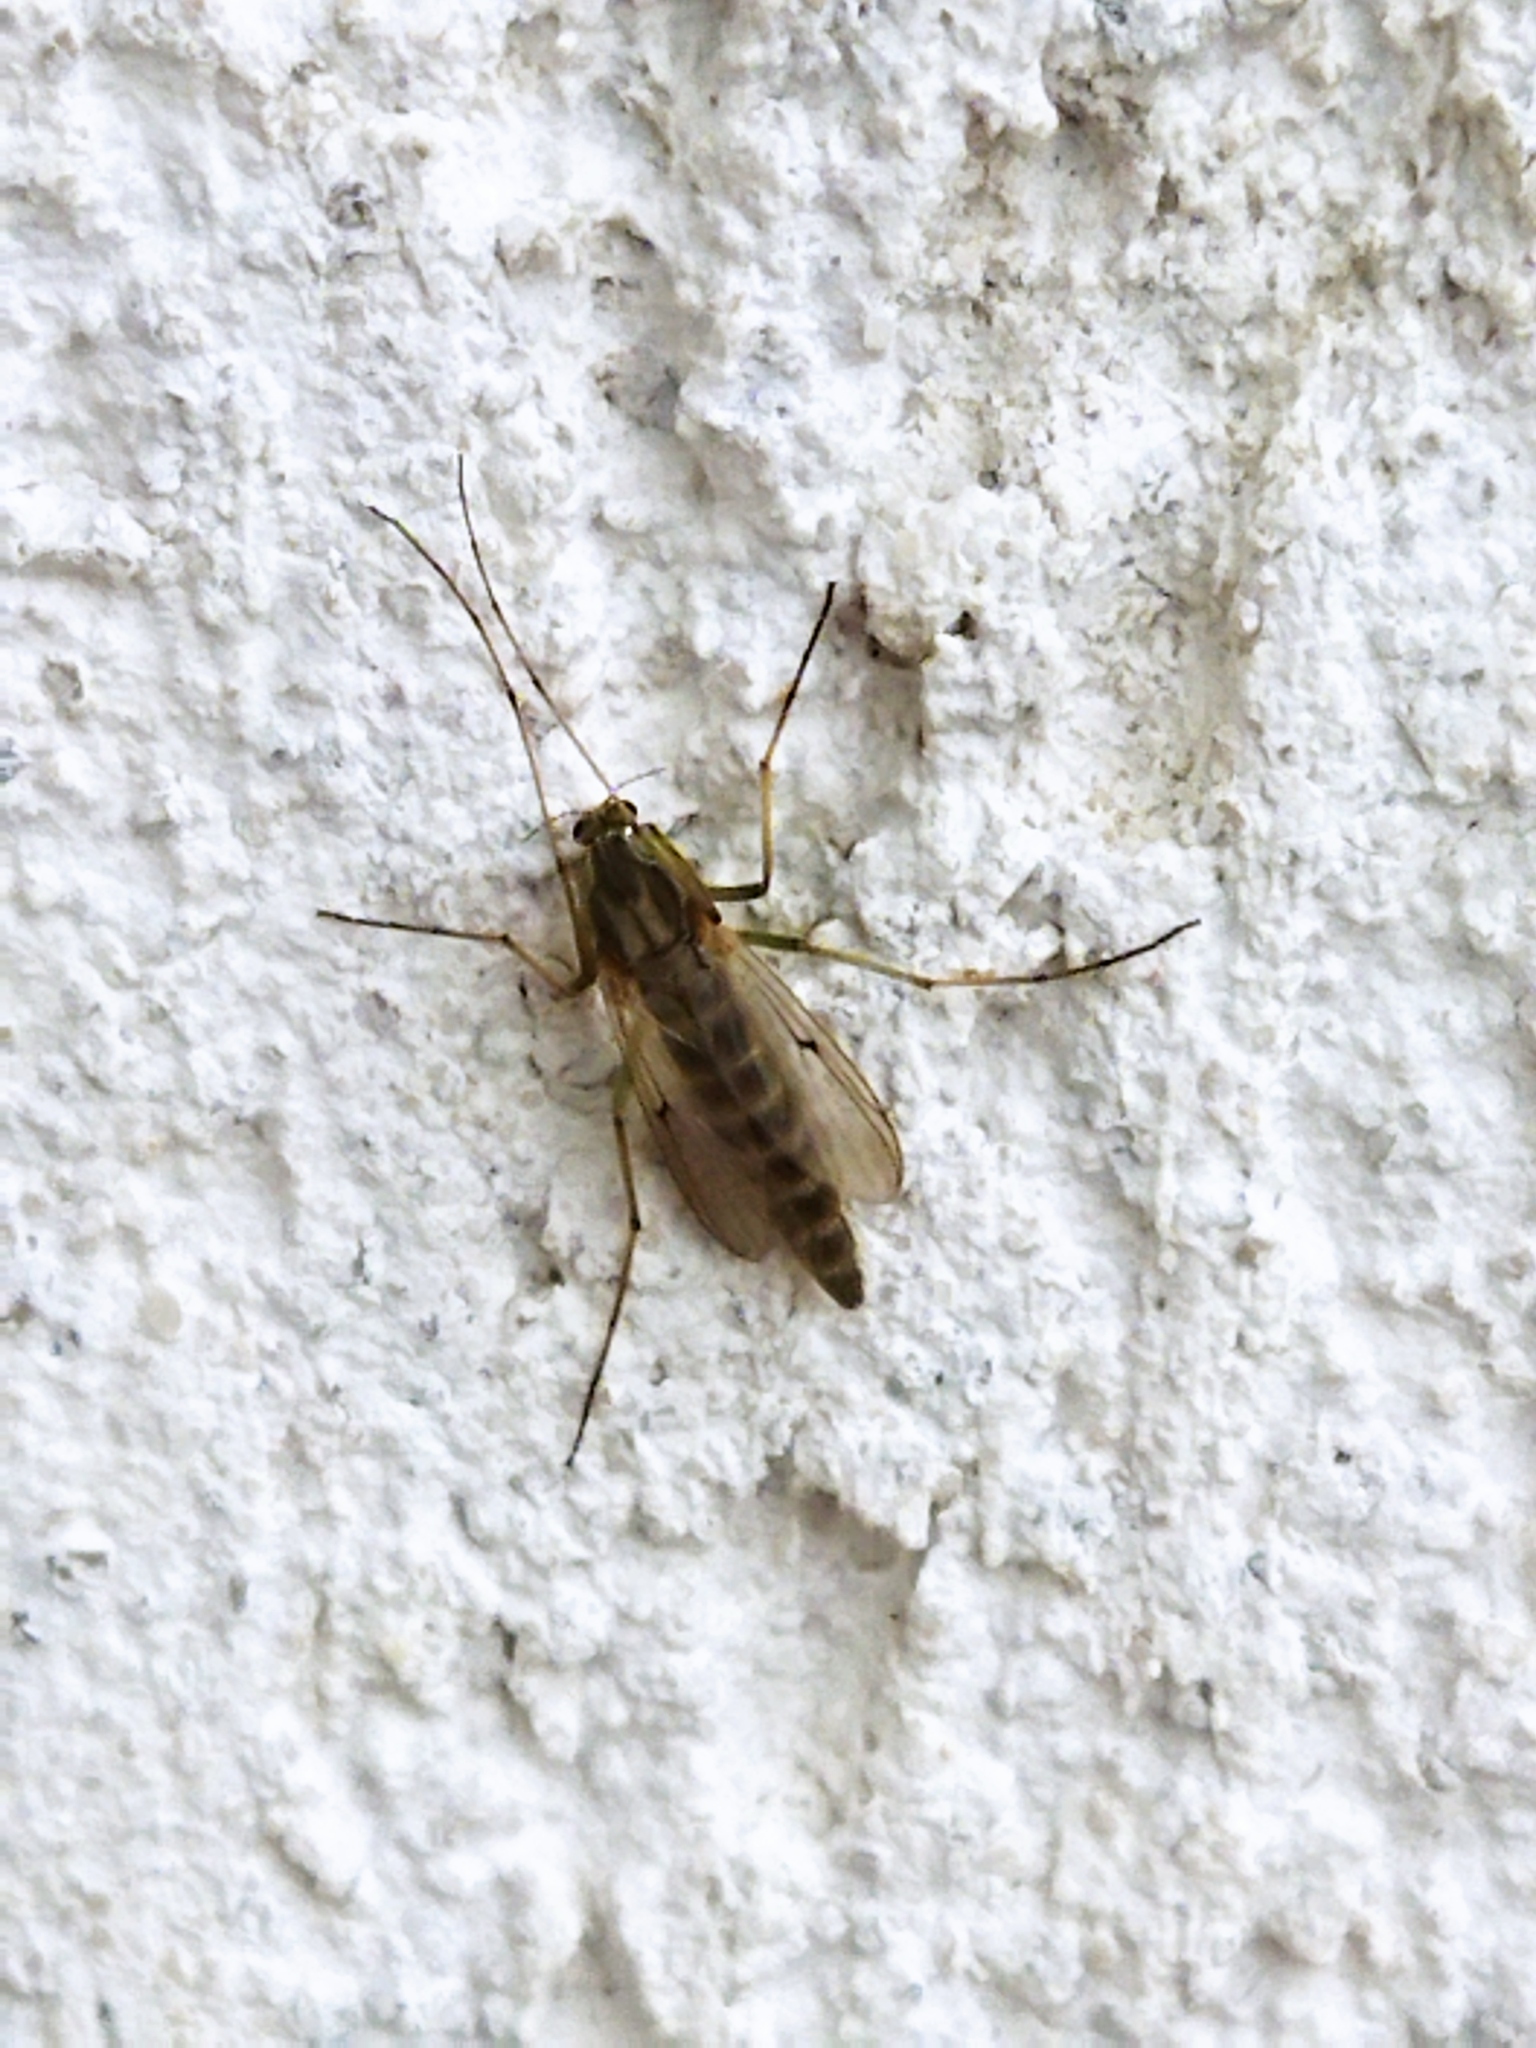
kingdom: Animalia
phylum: Arthropoda
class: Insecta
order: Diptera
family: Chironomidae
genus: Glyptotendipes
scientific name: Glyptotendipes barbipes
